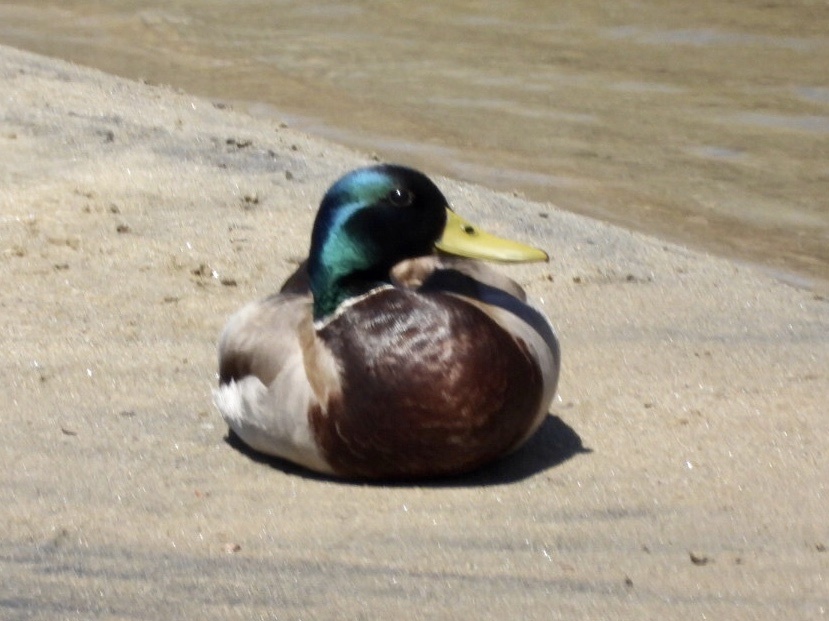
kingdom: Animalia
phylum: Chordata
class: Aves
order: Anseriformes
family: Anatidae
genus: Anas
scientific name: Anas platyrhynchos
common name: Mallard
